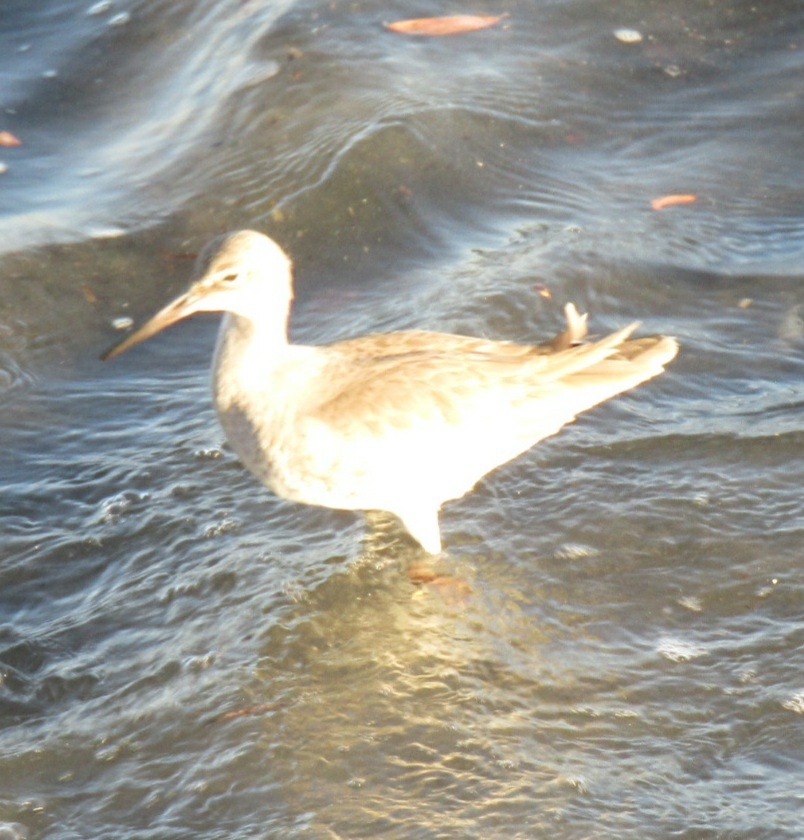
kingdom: Animalia
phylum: Chordata
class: Aves
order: Charadriiformes
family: Scolopacidae
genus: Tringa
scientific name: Tringa semipalmata
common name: Willet
